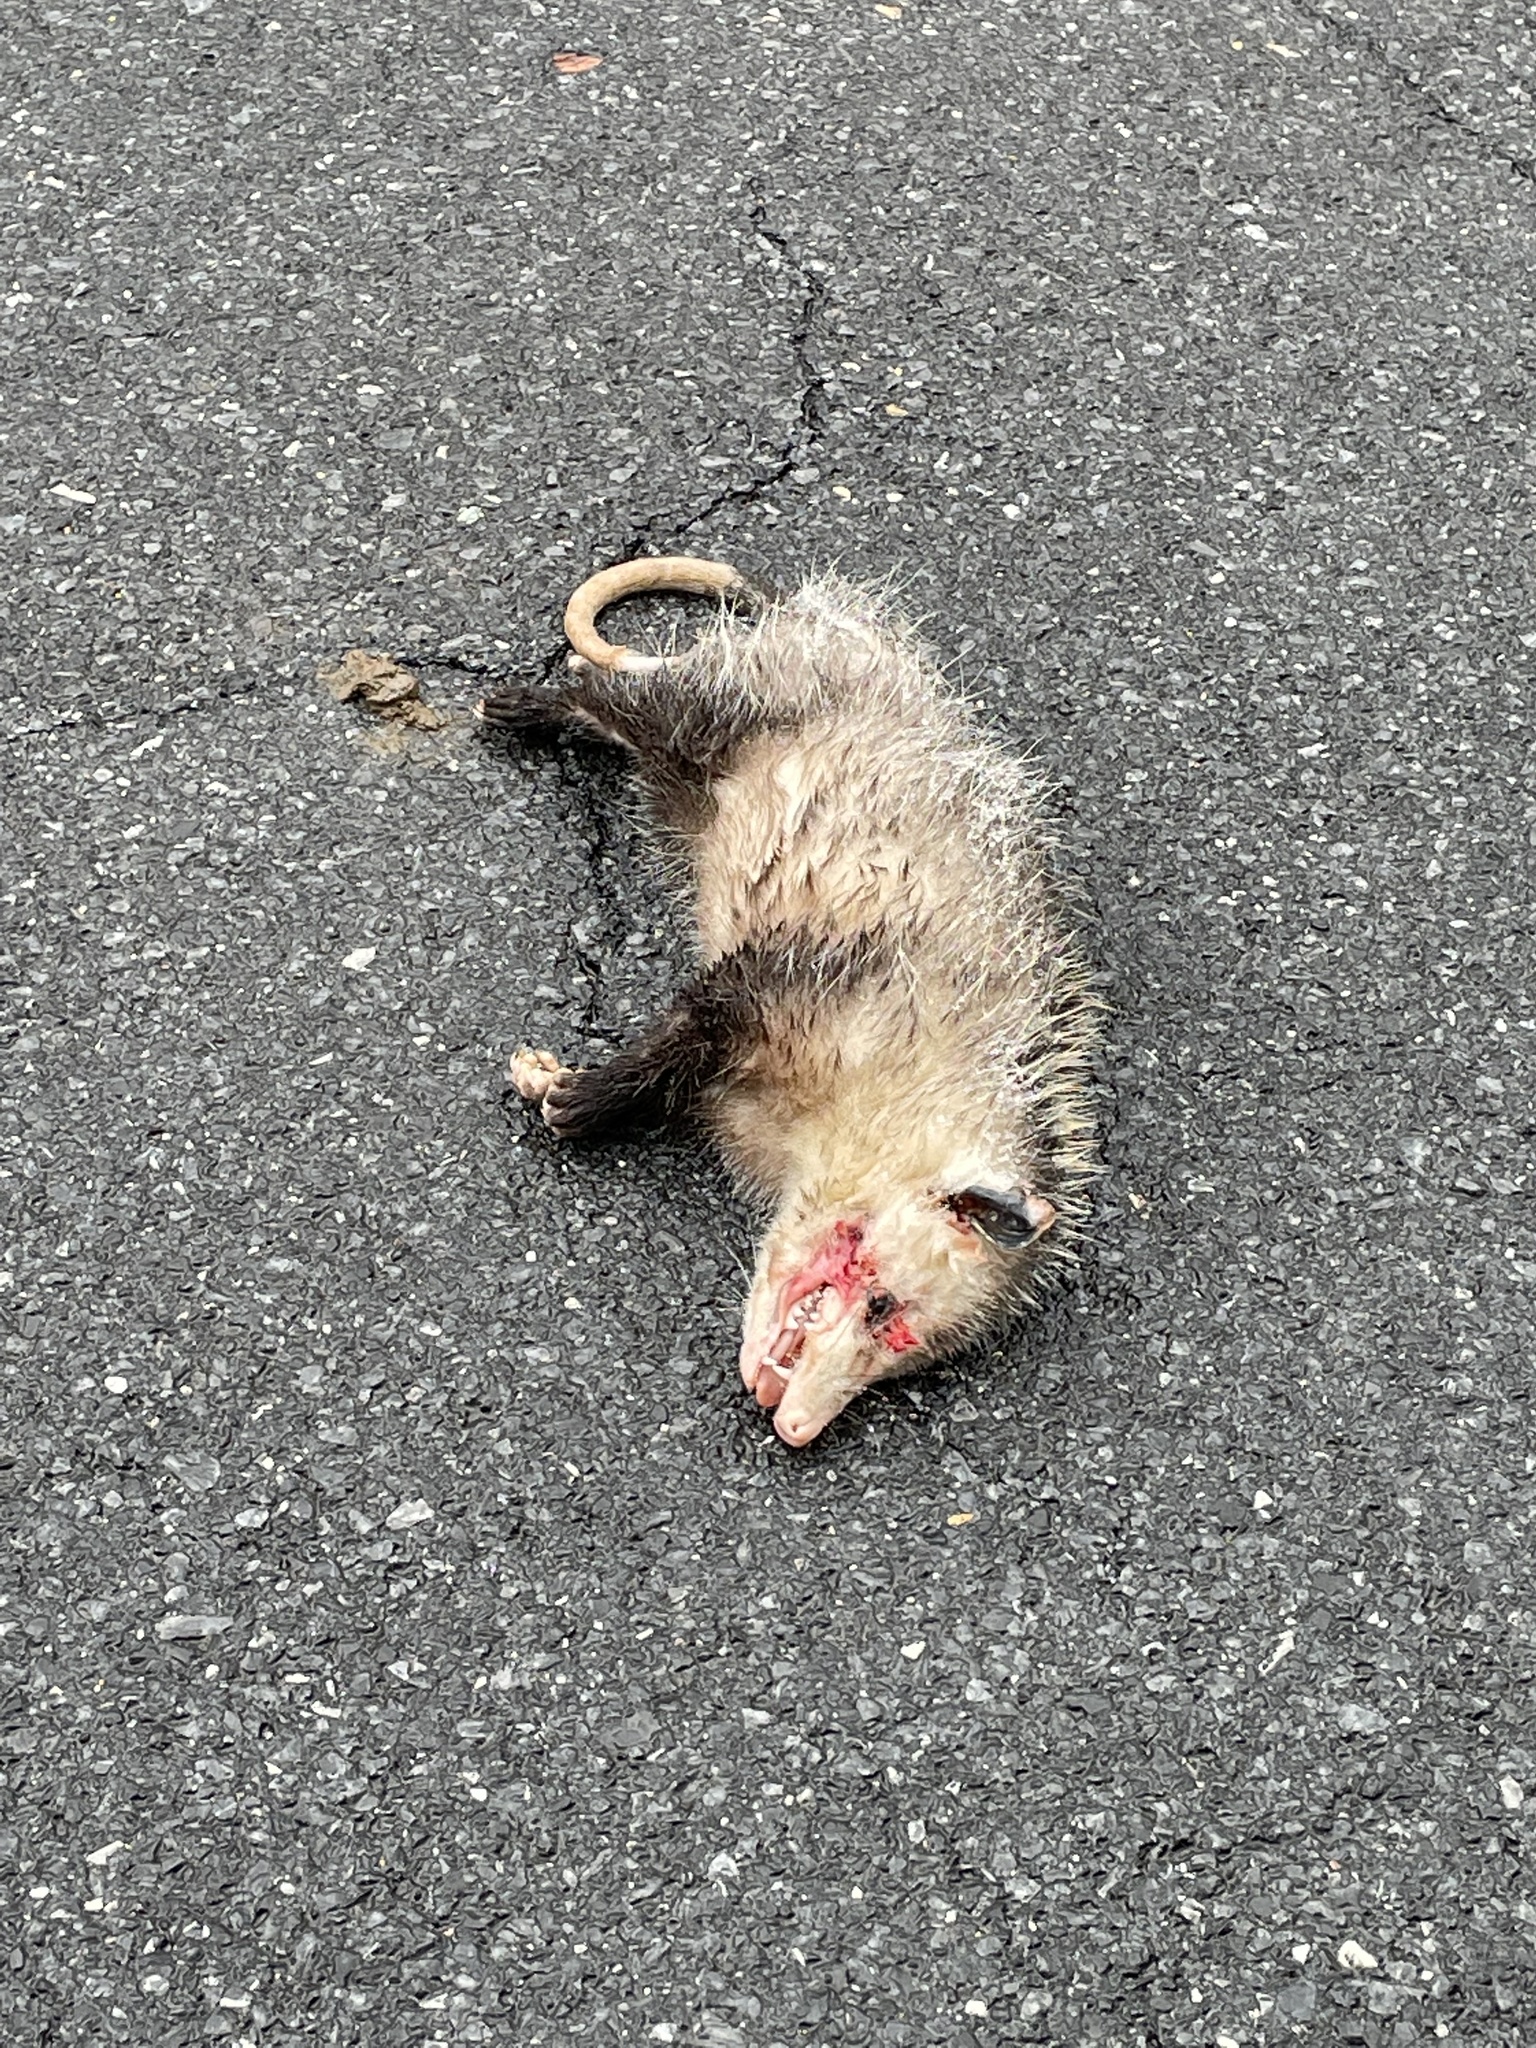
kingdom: Animalia
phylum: Chordata
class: Mammalia
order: Didelphimorphia
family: Didelphidae
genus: Didelphis
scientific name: Didelphis virginiana
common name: Virginia opossum
